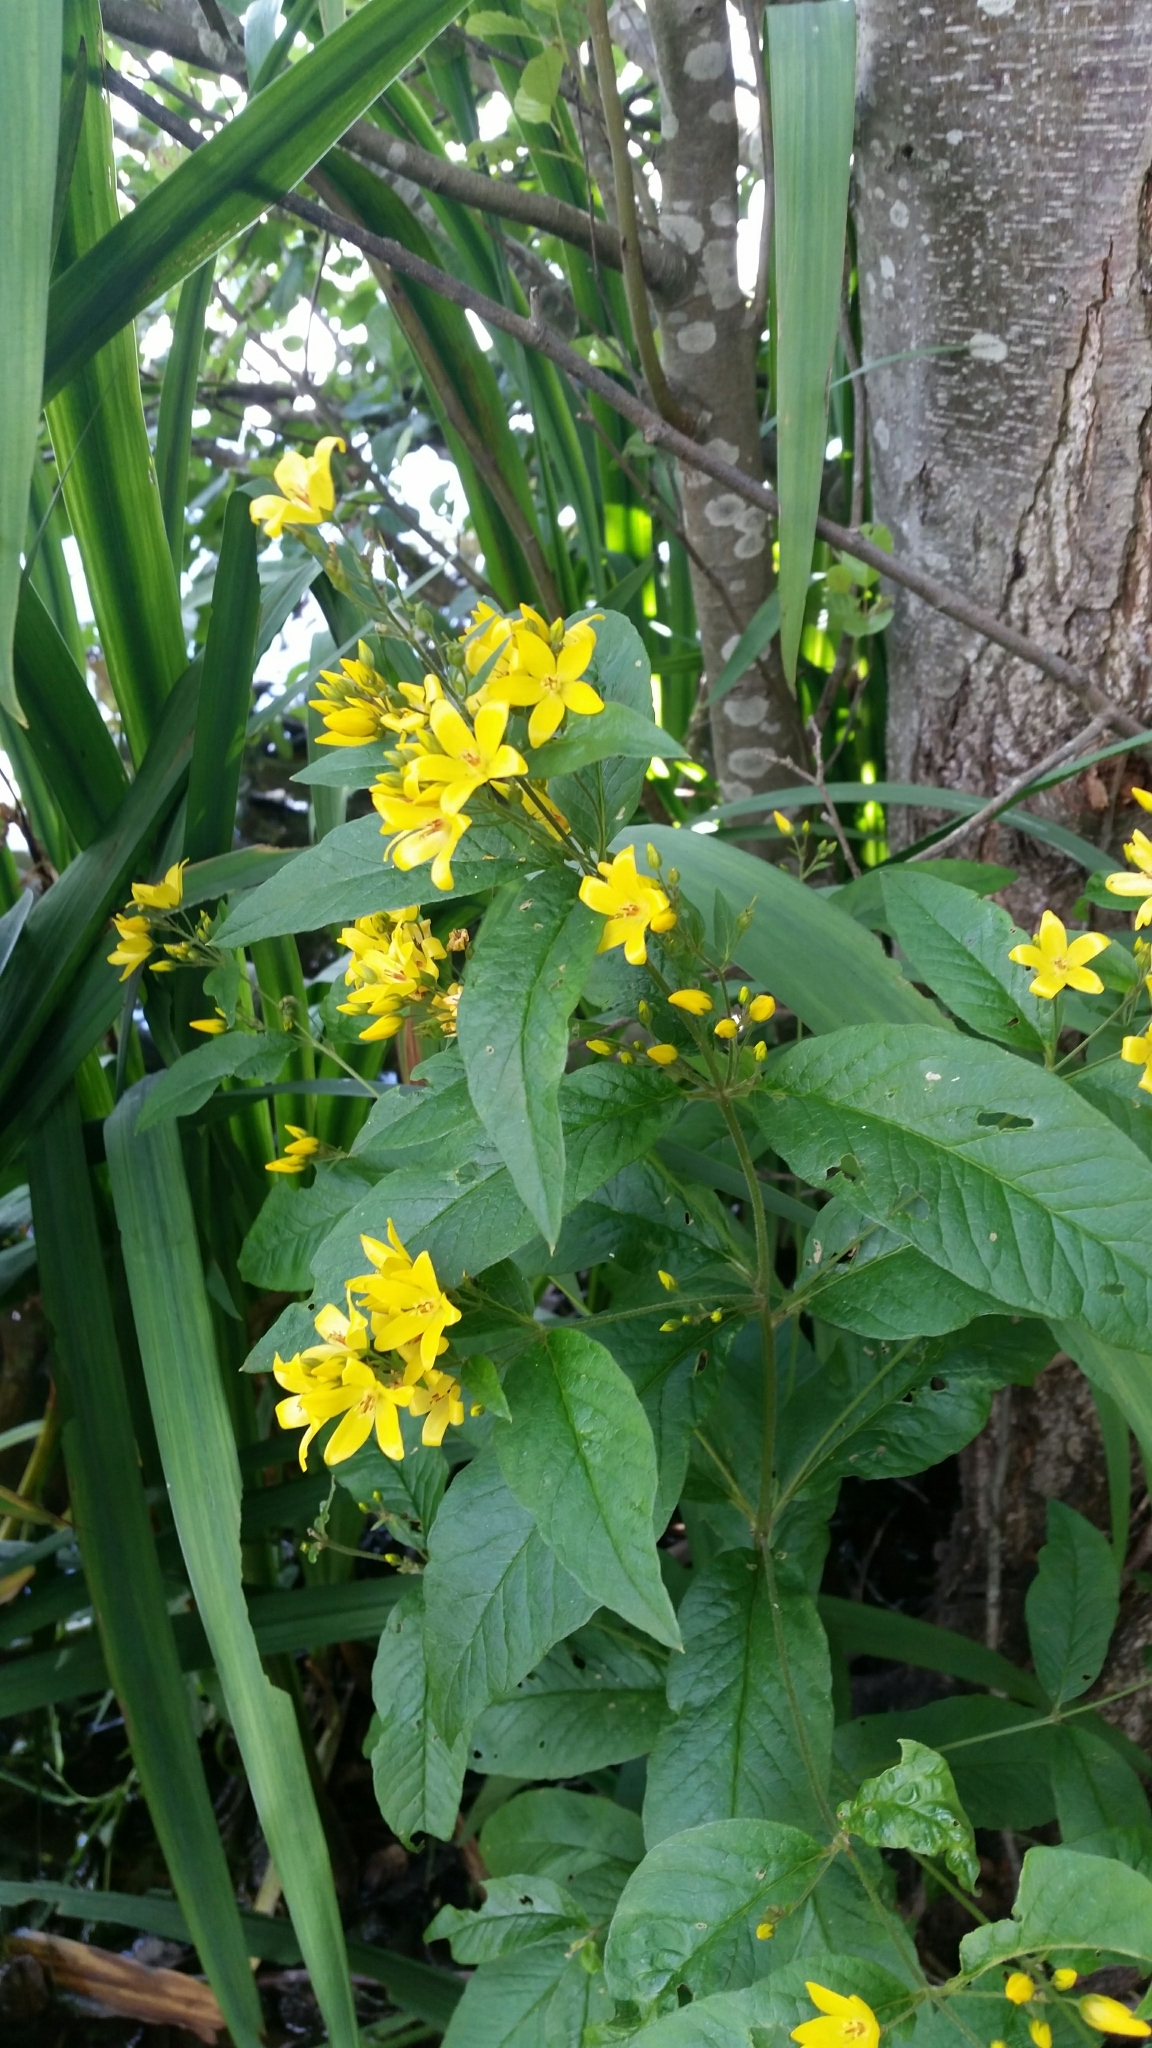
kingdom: Plantae
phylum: Tracheophyta
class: Magnoliopsida
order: Ericales
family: Primulaceae
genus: Lysimachia
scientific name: Lysimachia vulgaris
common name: Yellow loosestrife
